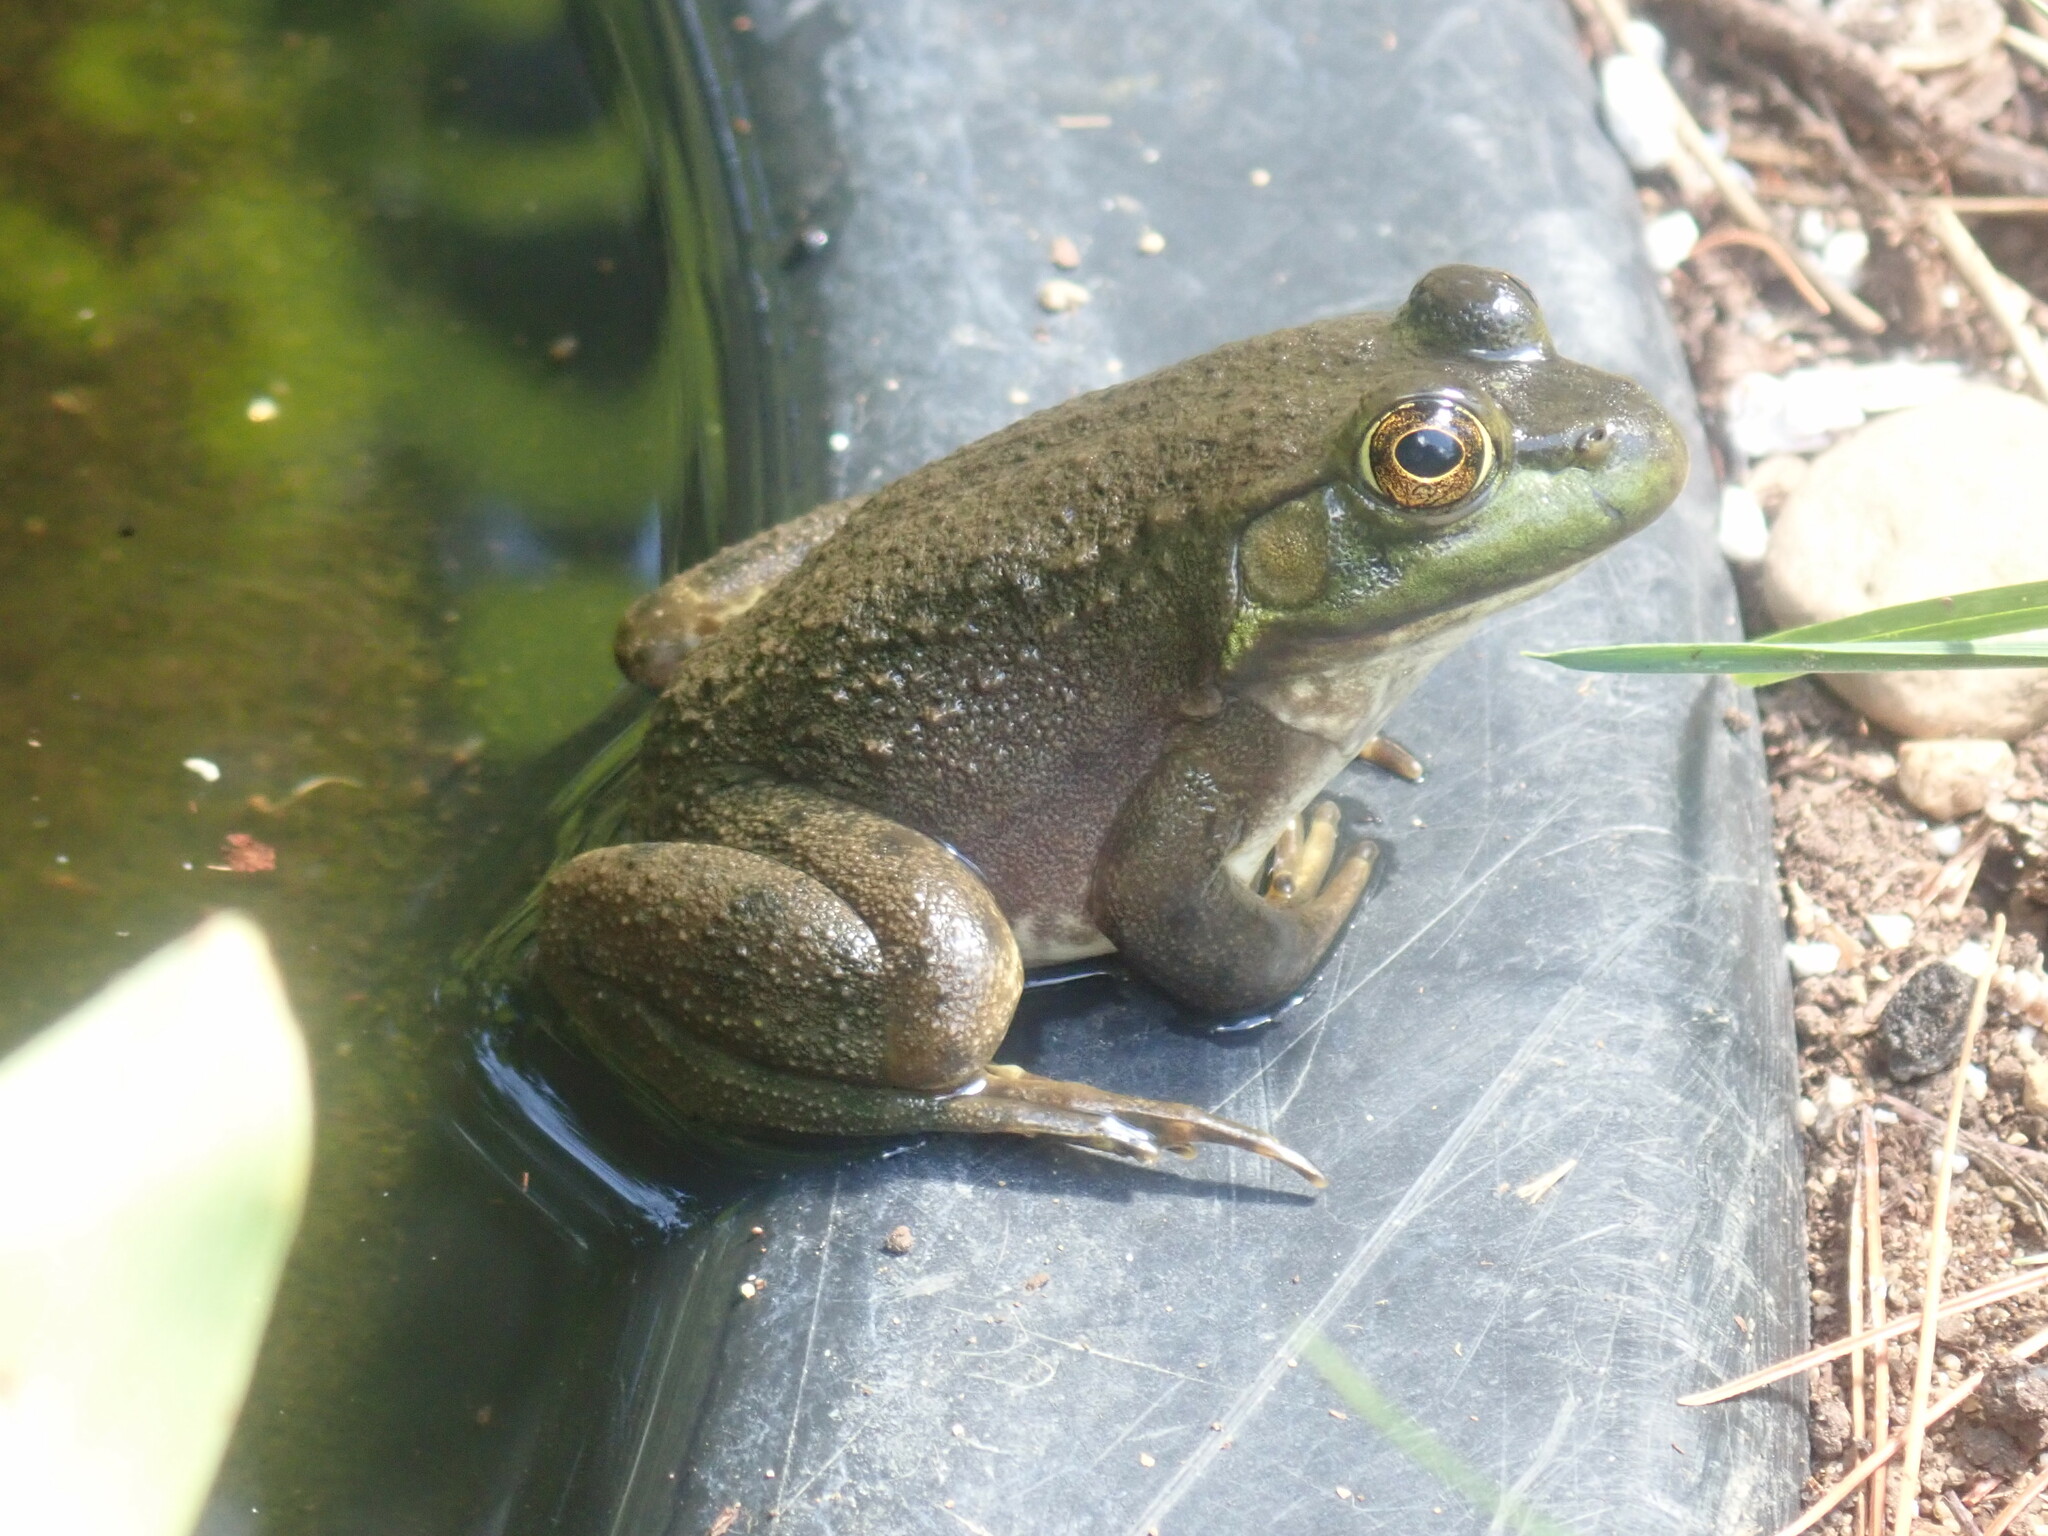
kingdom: Animalia
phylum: Chordata
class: Amphibia
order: Anura
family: Ranidae
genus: Lithobates
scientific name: Lithobates catesbeianus
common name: American bullfrog
